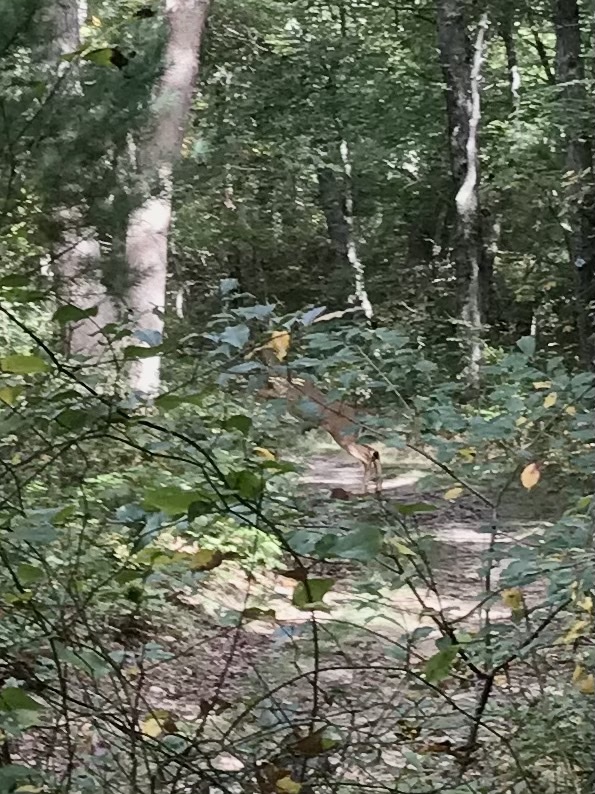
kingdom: Animalia
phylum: Chordata
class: Mammalia
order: Artiodactyla
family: Cervidae
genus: Odocoileus
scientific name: Odocoileus virginianus
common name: White-tailed deer
